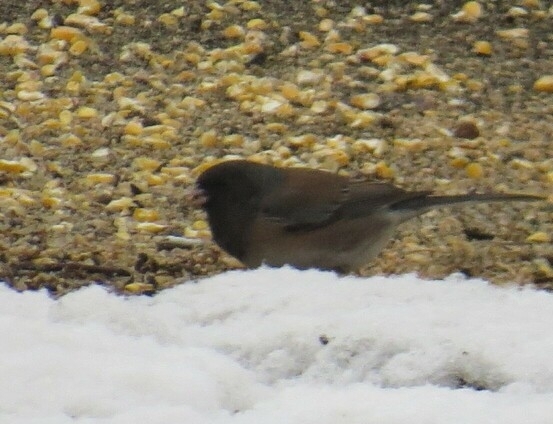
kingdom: Animalia
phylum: Chordata
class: Aves
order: Passeriformes
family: Passerellidae
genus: Junco
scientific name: Junco hyemalis
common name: Dark-eyed junco
